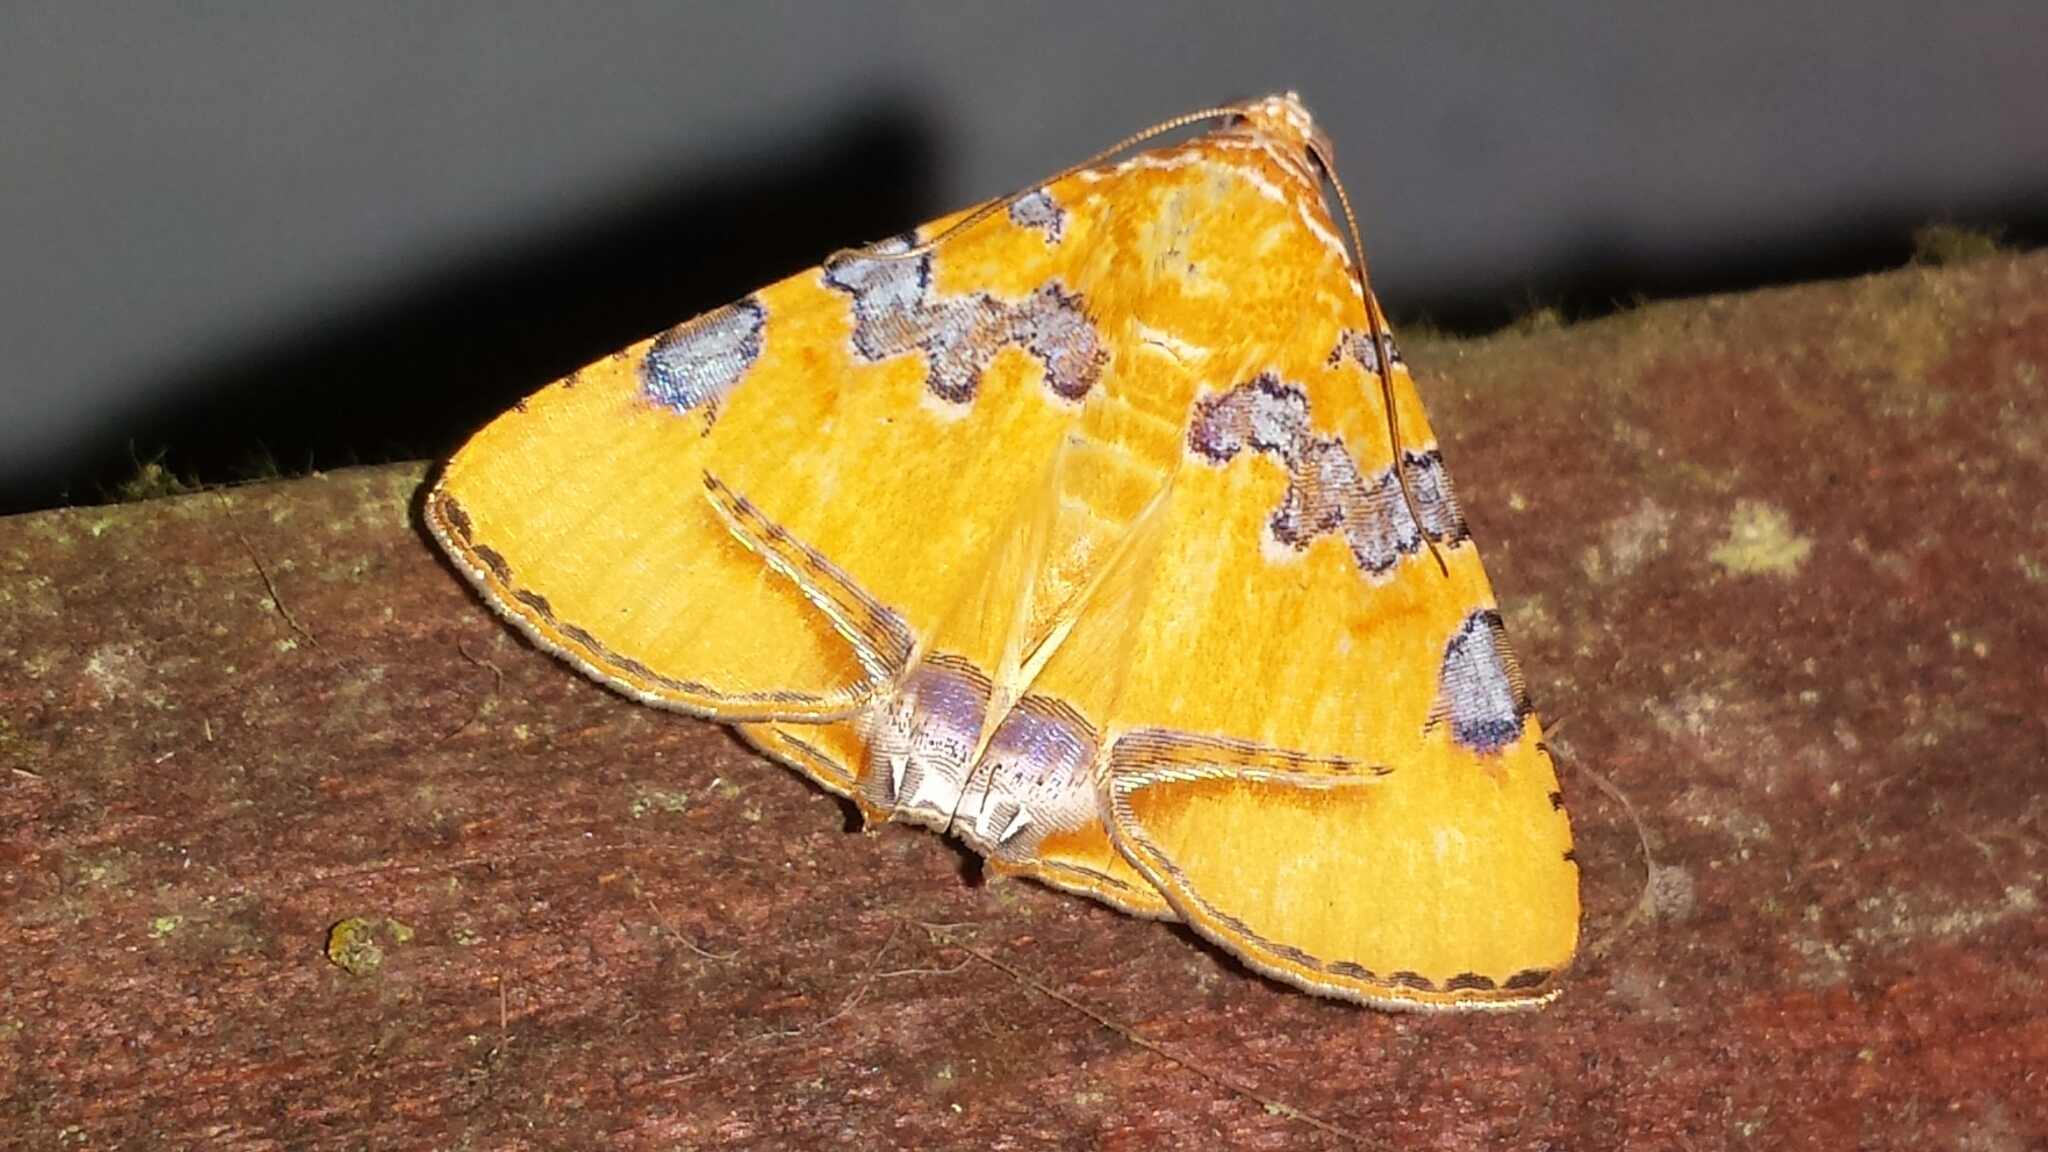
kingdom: Animalia
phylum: Arthropoda
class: Insecta
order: Lepidoptera
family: Erebidae
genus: Eulepidotis
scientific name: Eulepidotis hermura
